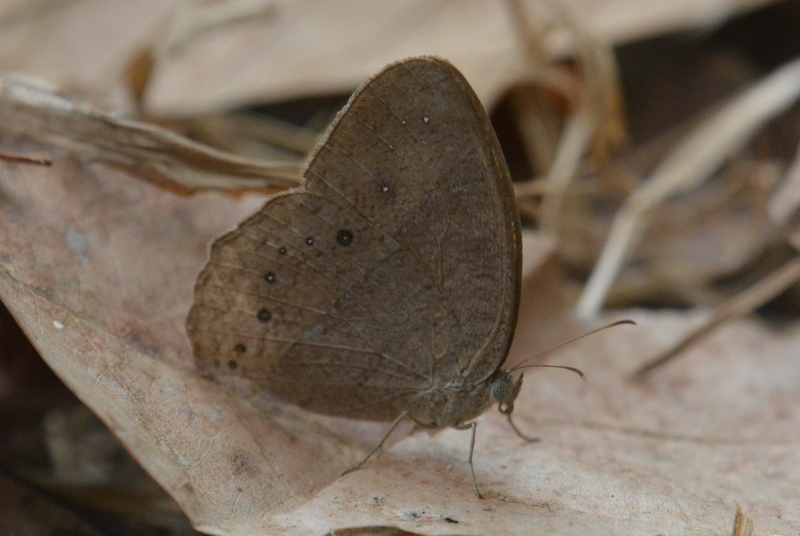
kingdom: Animalia
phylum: Arthropoda
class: Insecta
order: Lepidoptera
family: Nymphalidae
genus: Mycalesis
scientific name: Mycalesis perseus
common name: Dingy bushbrown
